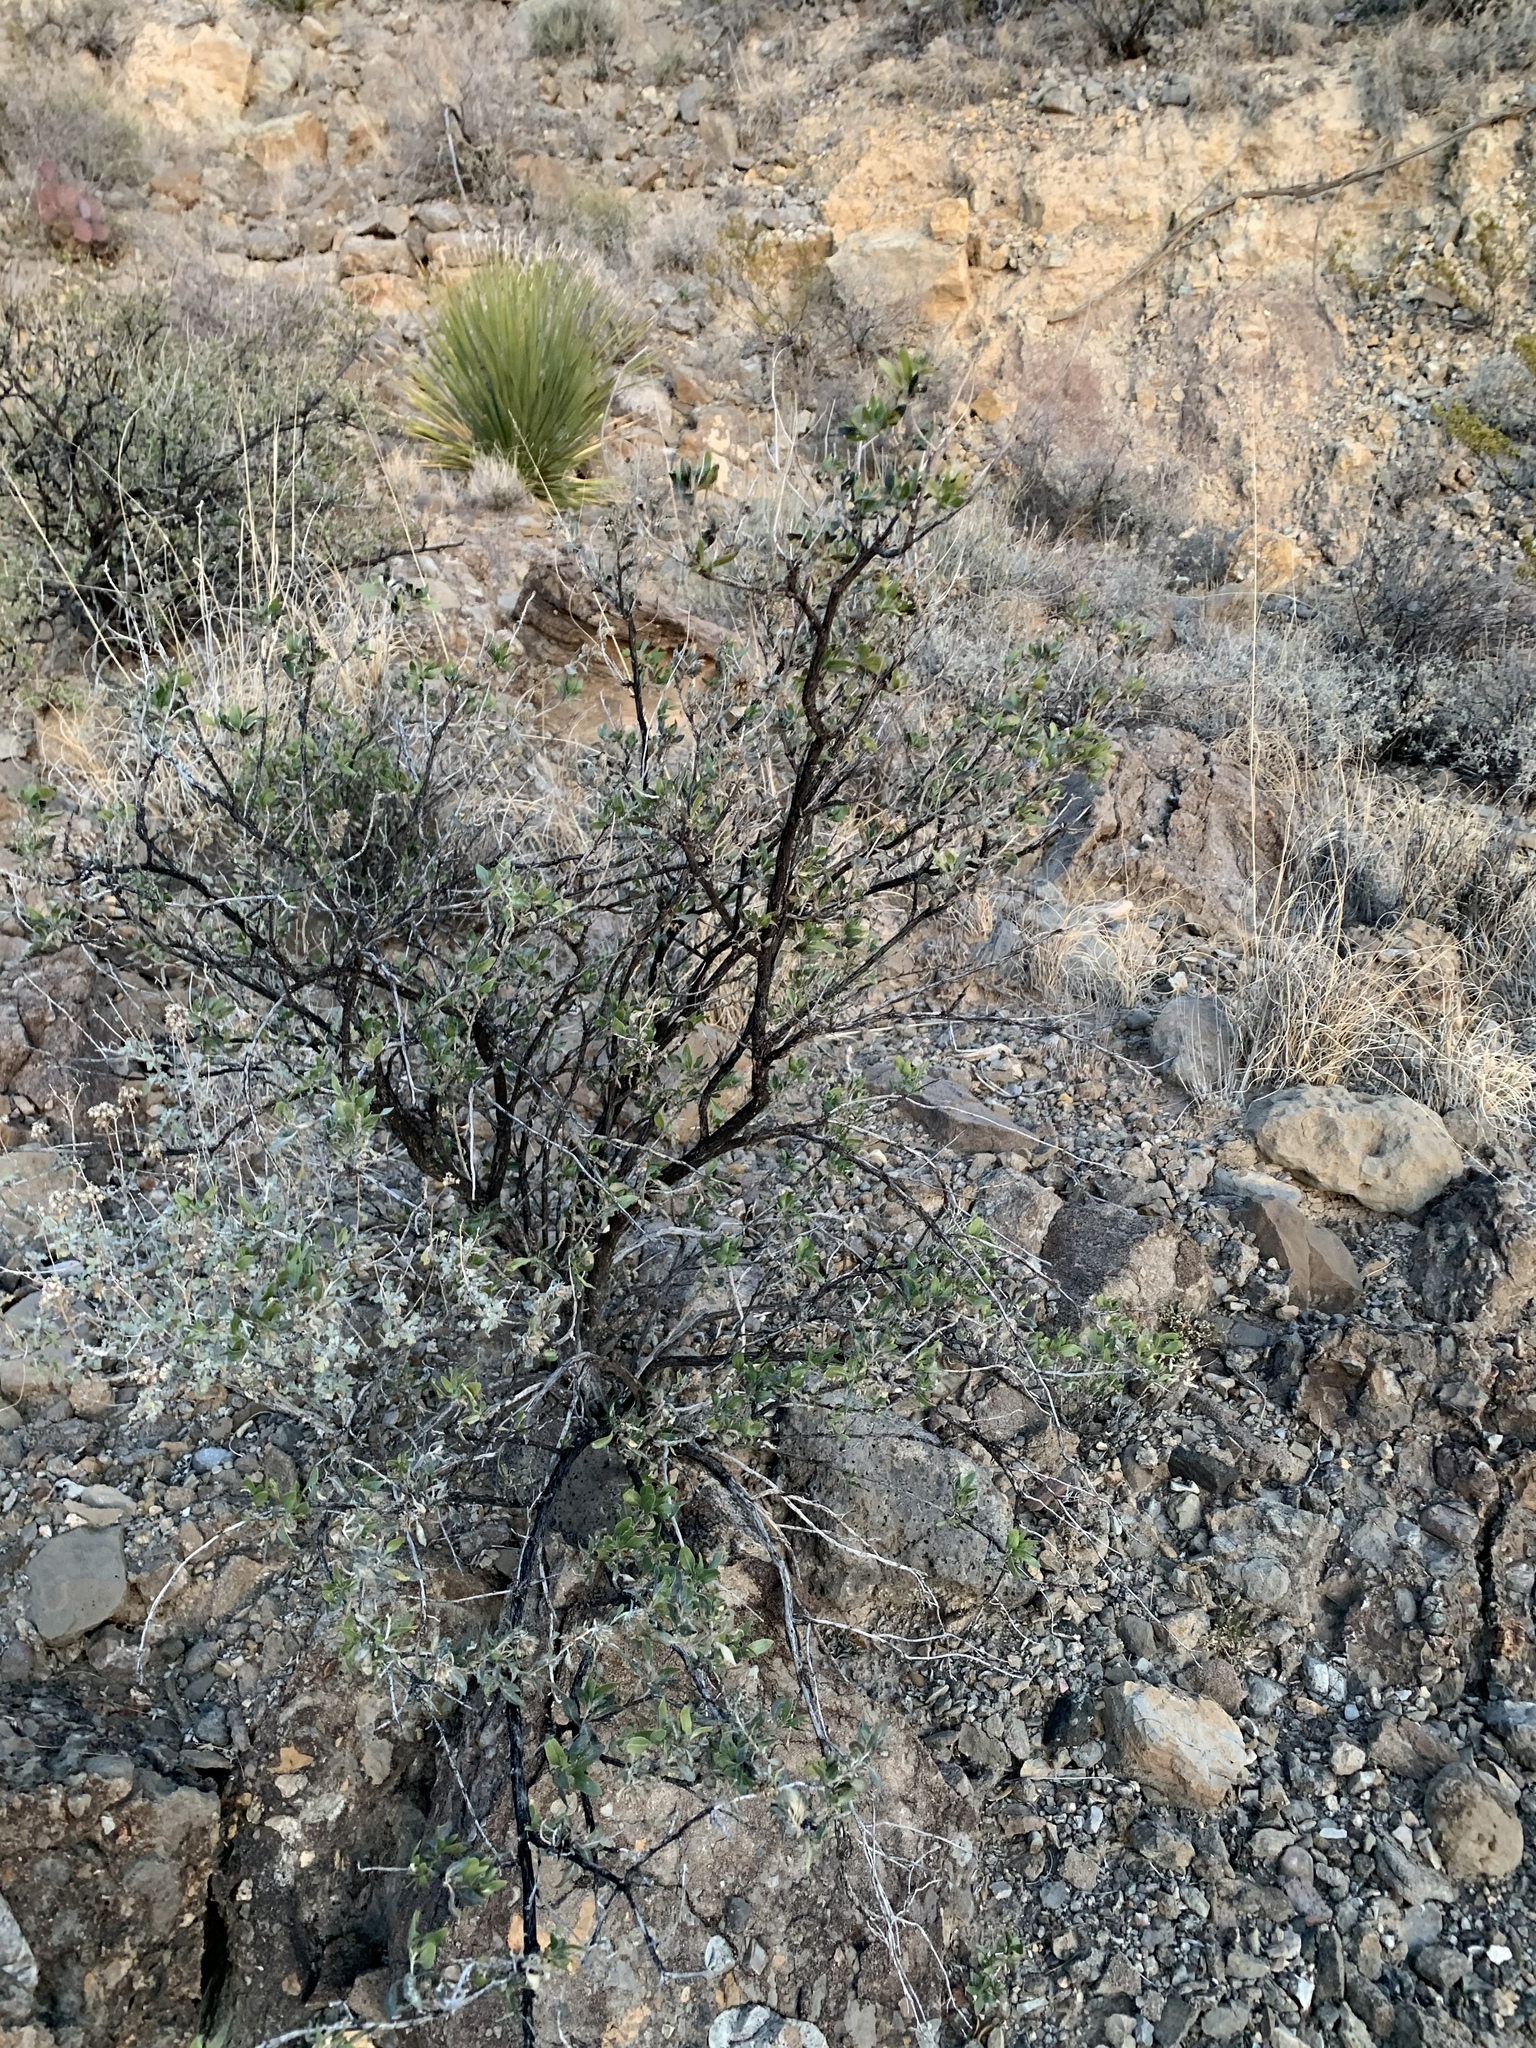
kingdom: Plantae
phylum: Tracheophyta
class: Magnoliopsida
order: Asterales
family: Asteraceae
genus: Flourensia
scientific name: Flourensia cernua
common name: Varnishbush
